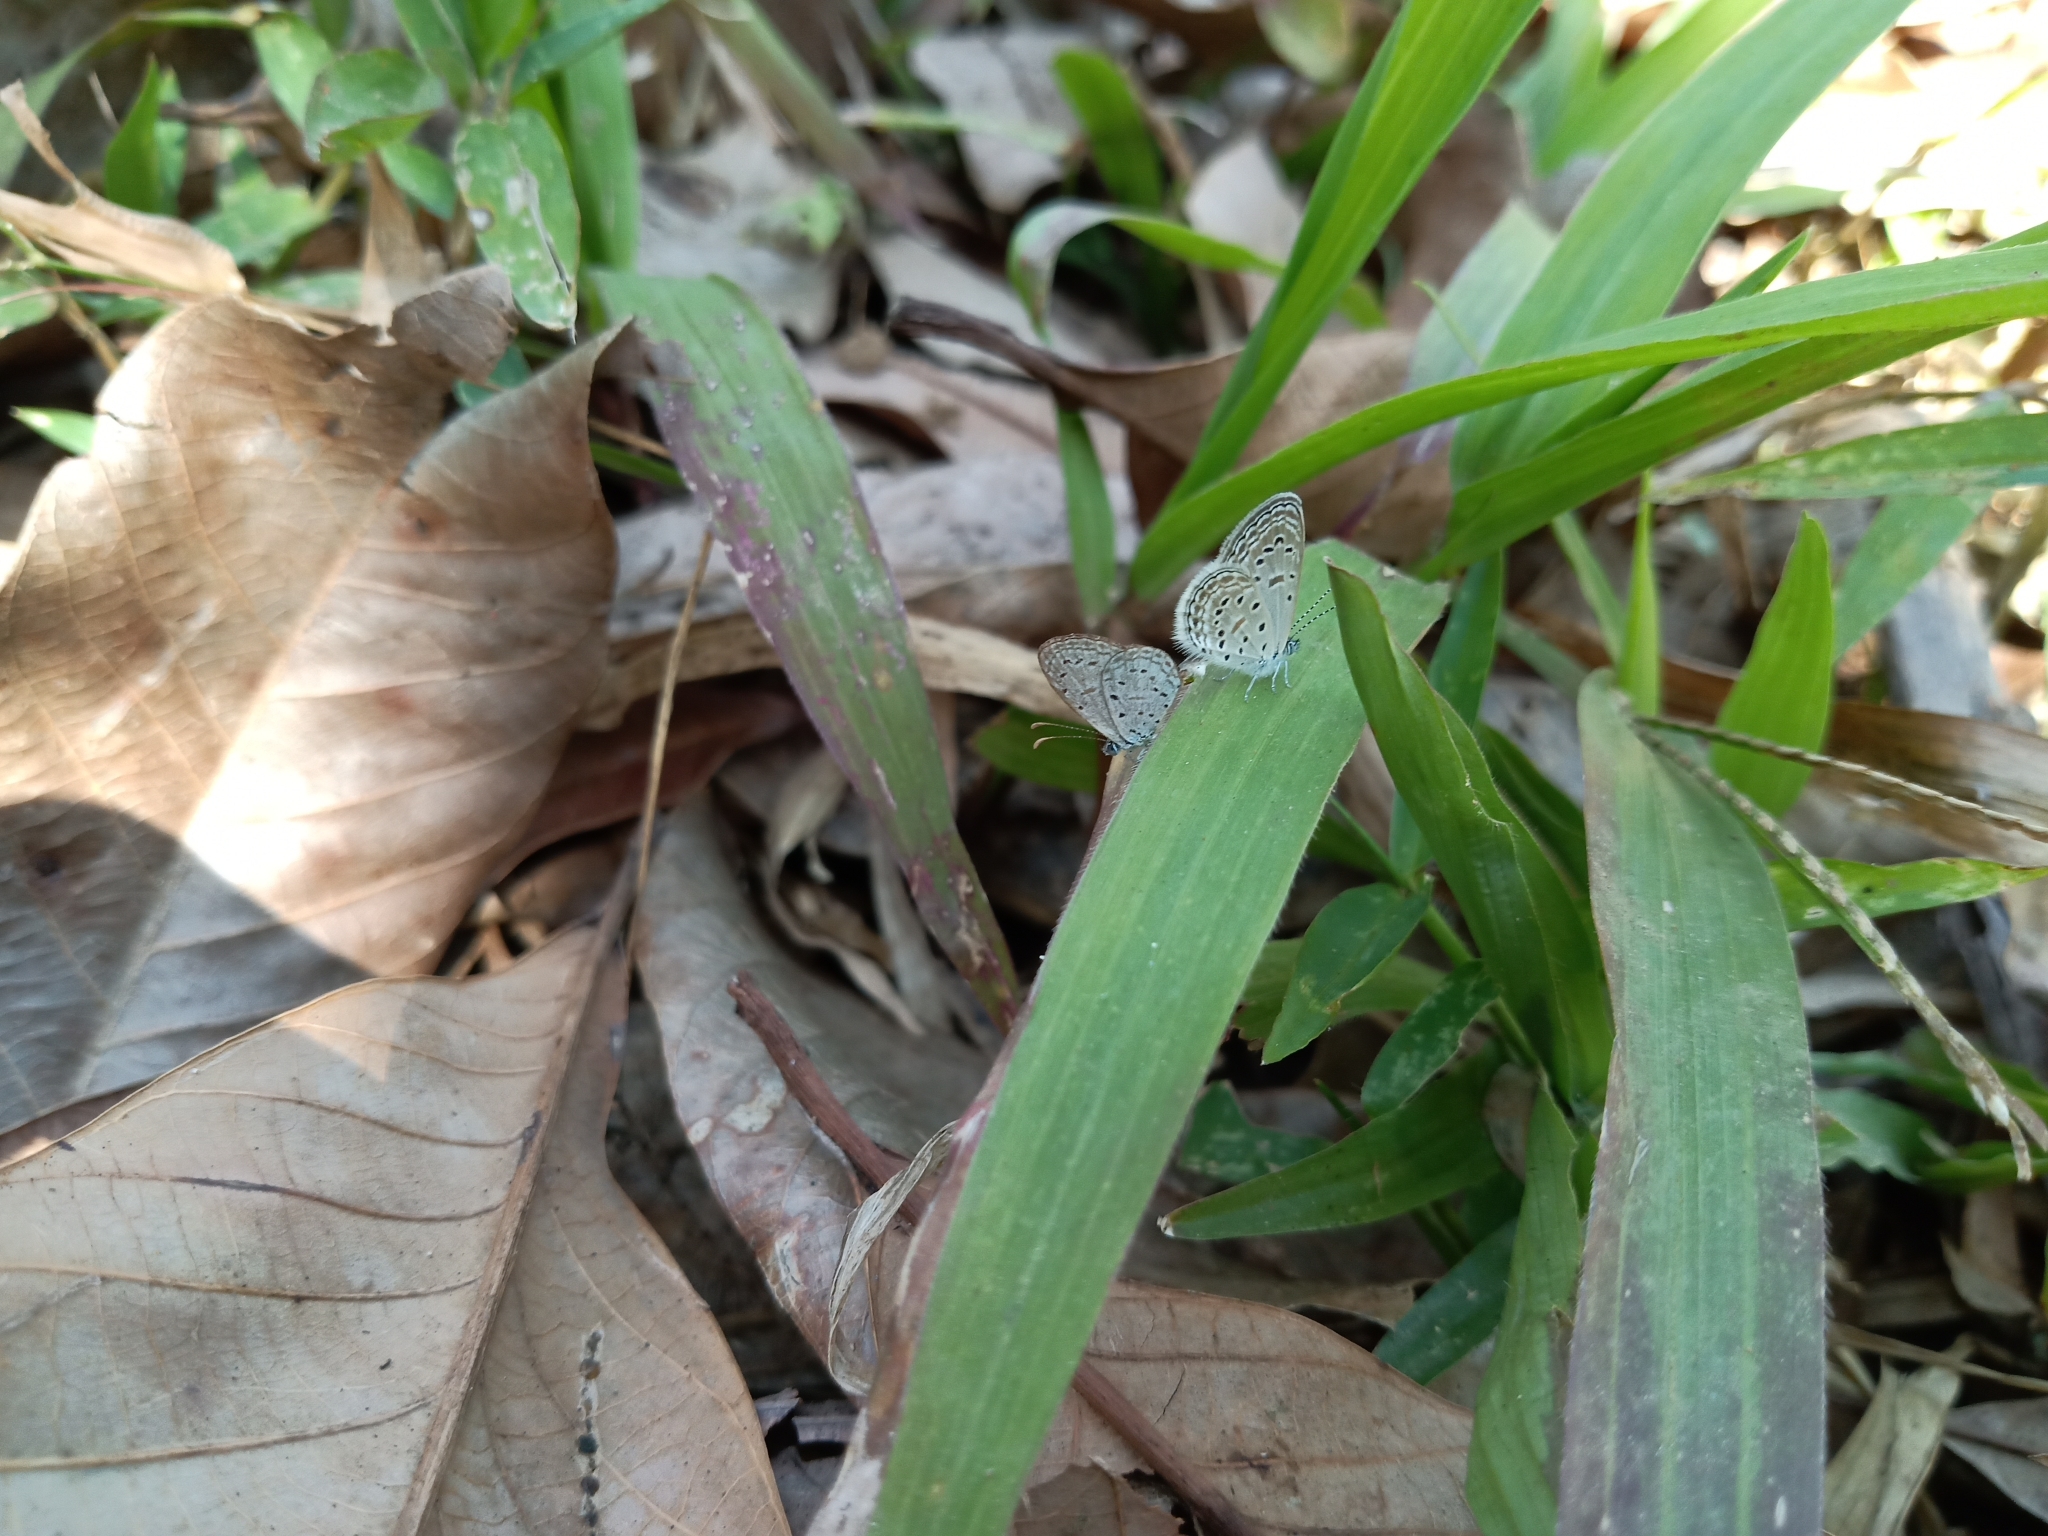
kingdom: Animalia
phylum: Arthropoda
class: Insecta
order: Lepidoptera
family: Lycaenidae
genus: Zizula
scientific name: Zizula hylax
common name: Gaika blue
